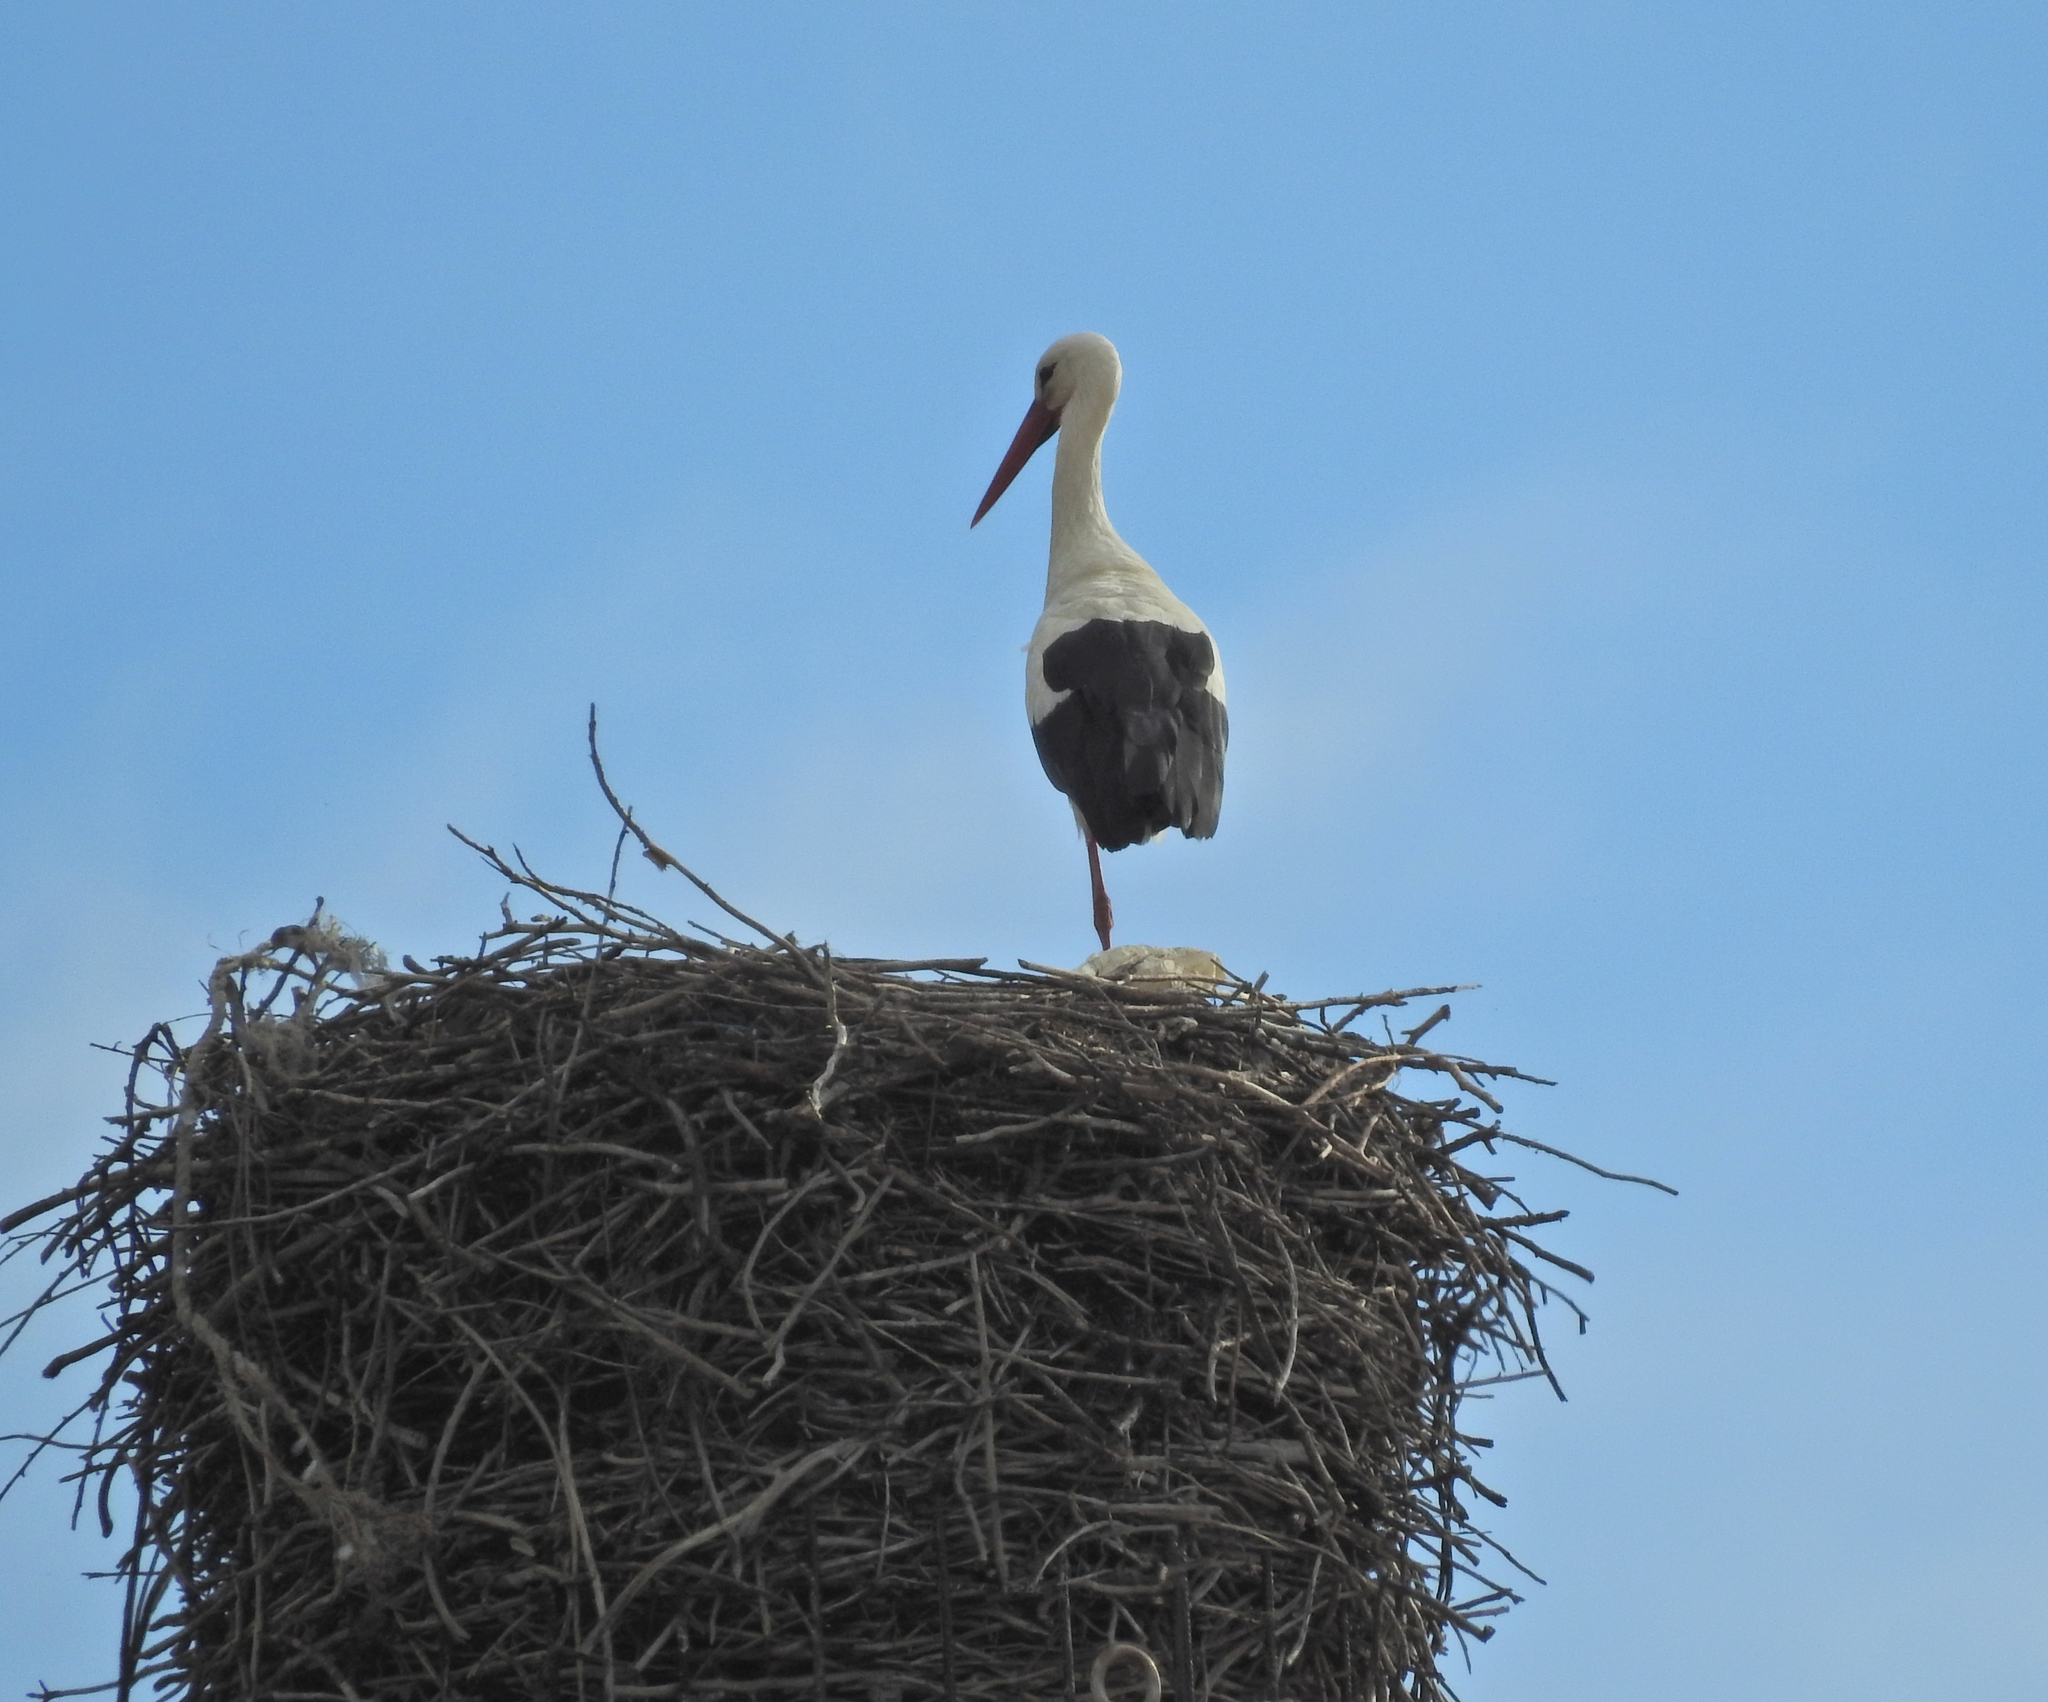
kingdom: Animalia
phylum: Chordata
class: Aves
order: Ciconiiformes
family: Ciconiidae
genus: Ciconia
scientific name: Ciconia ciconia
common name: White stork
